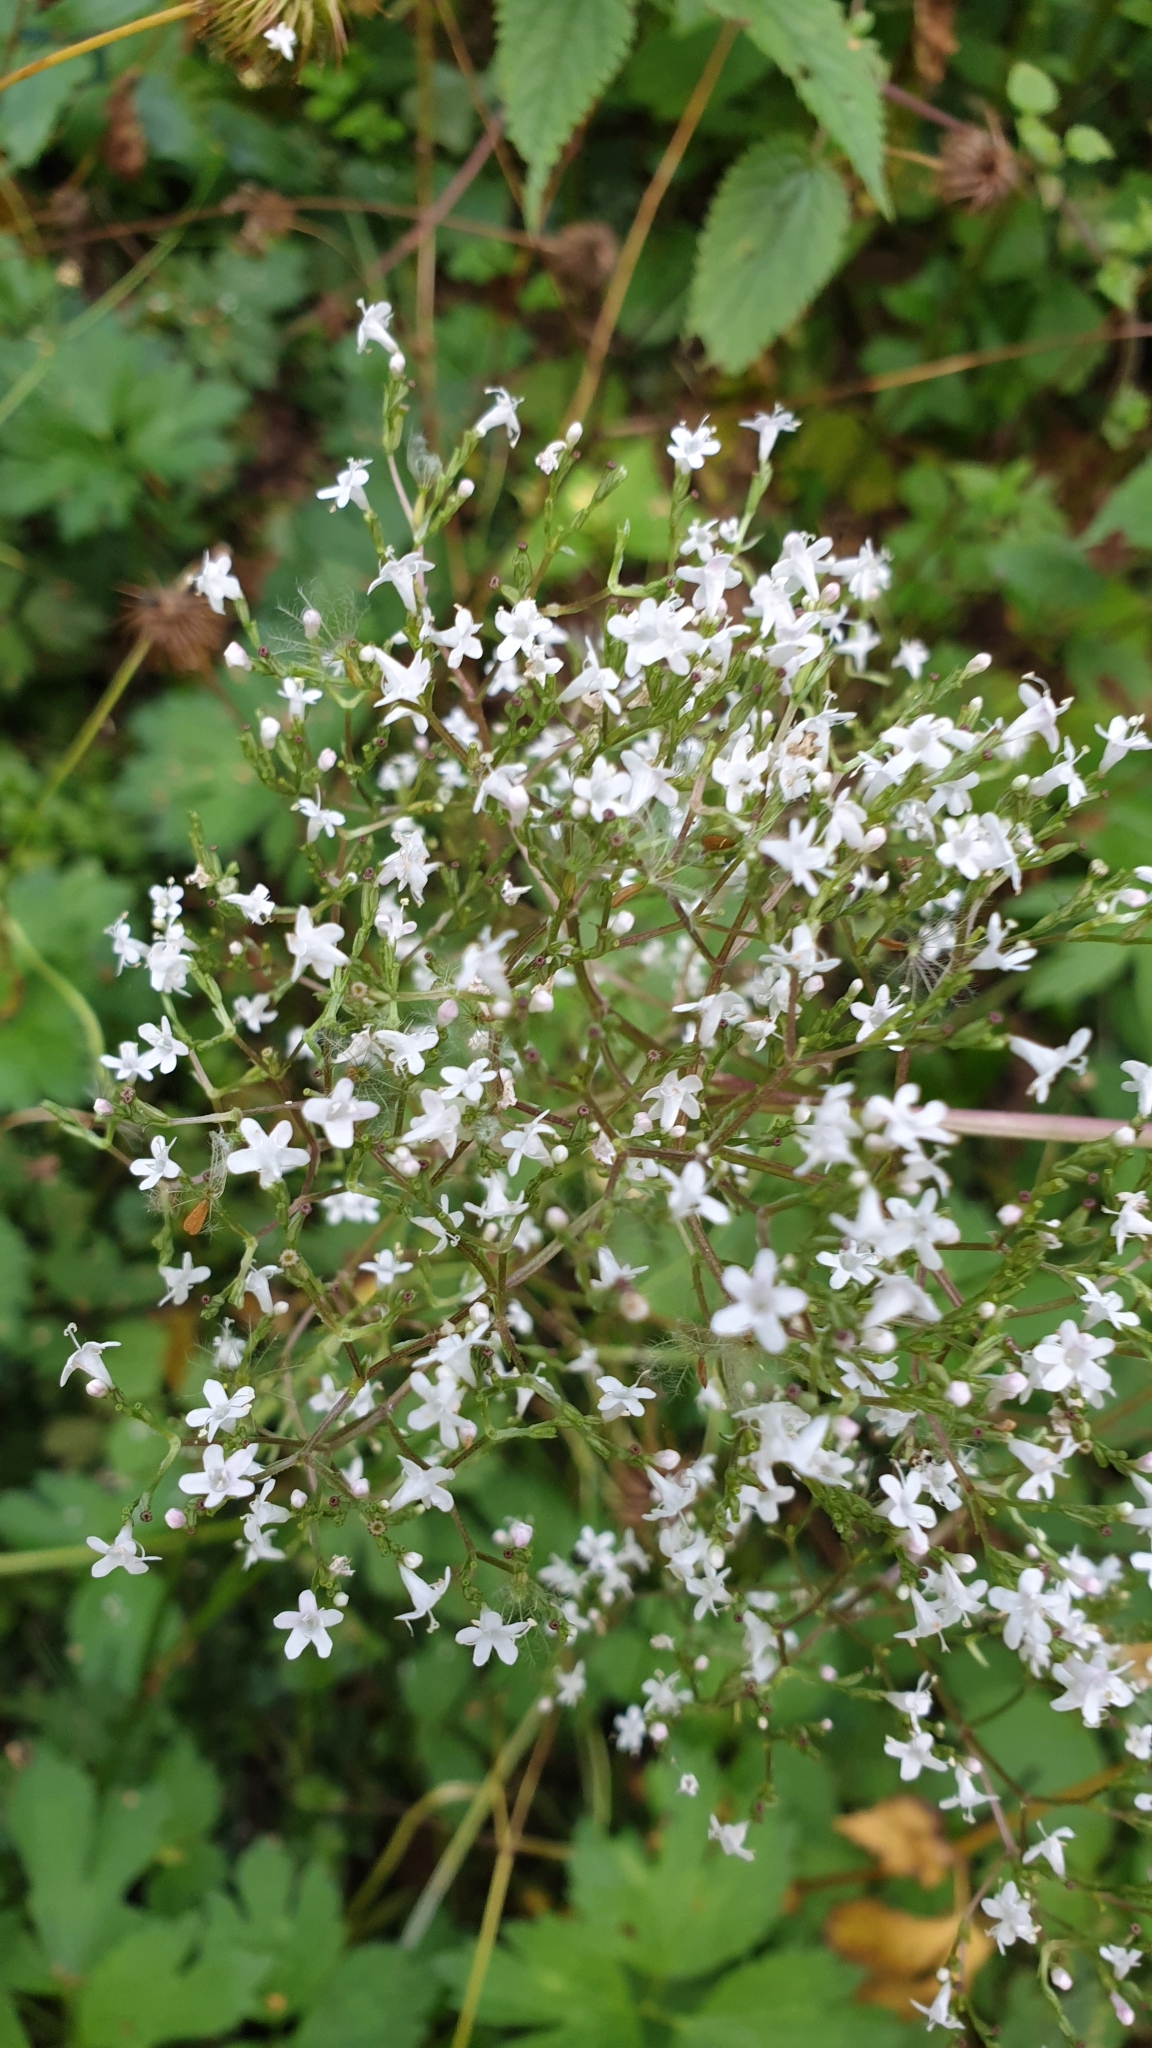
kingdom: Plantae
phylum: Tracheophyta
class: Magnoliopsida
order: Dipsacales
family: Caprifoliaceae
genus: Valeriana
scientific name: Valeriana officinalis
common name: Common valerian
